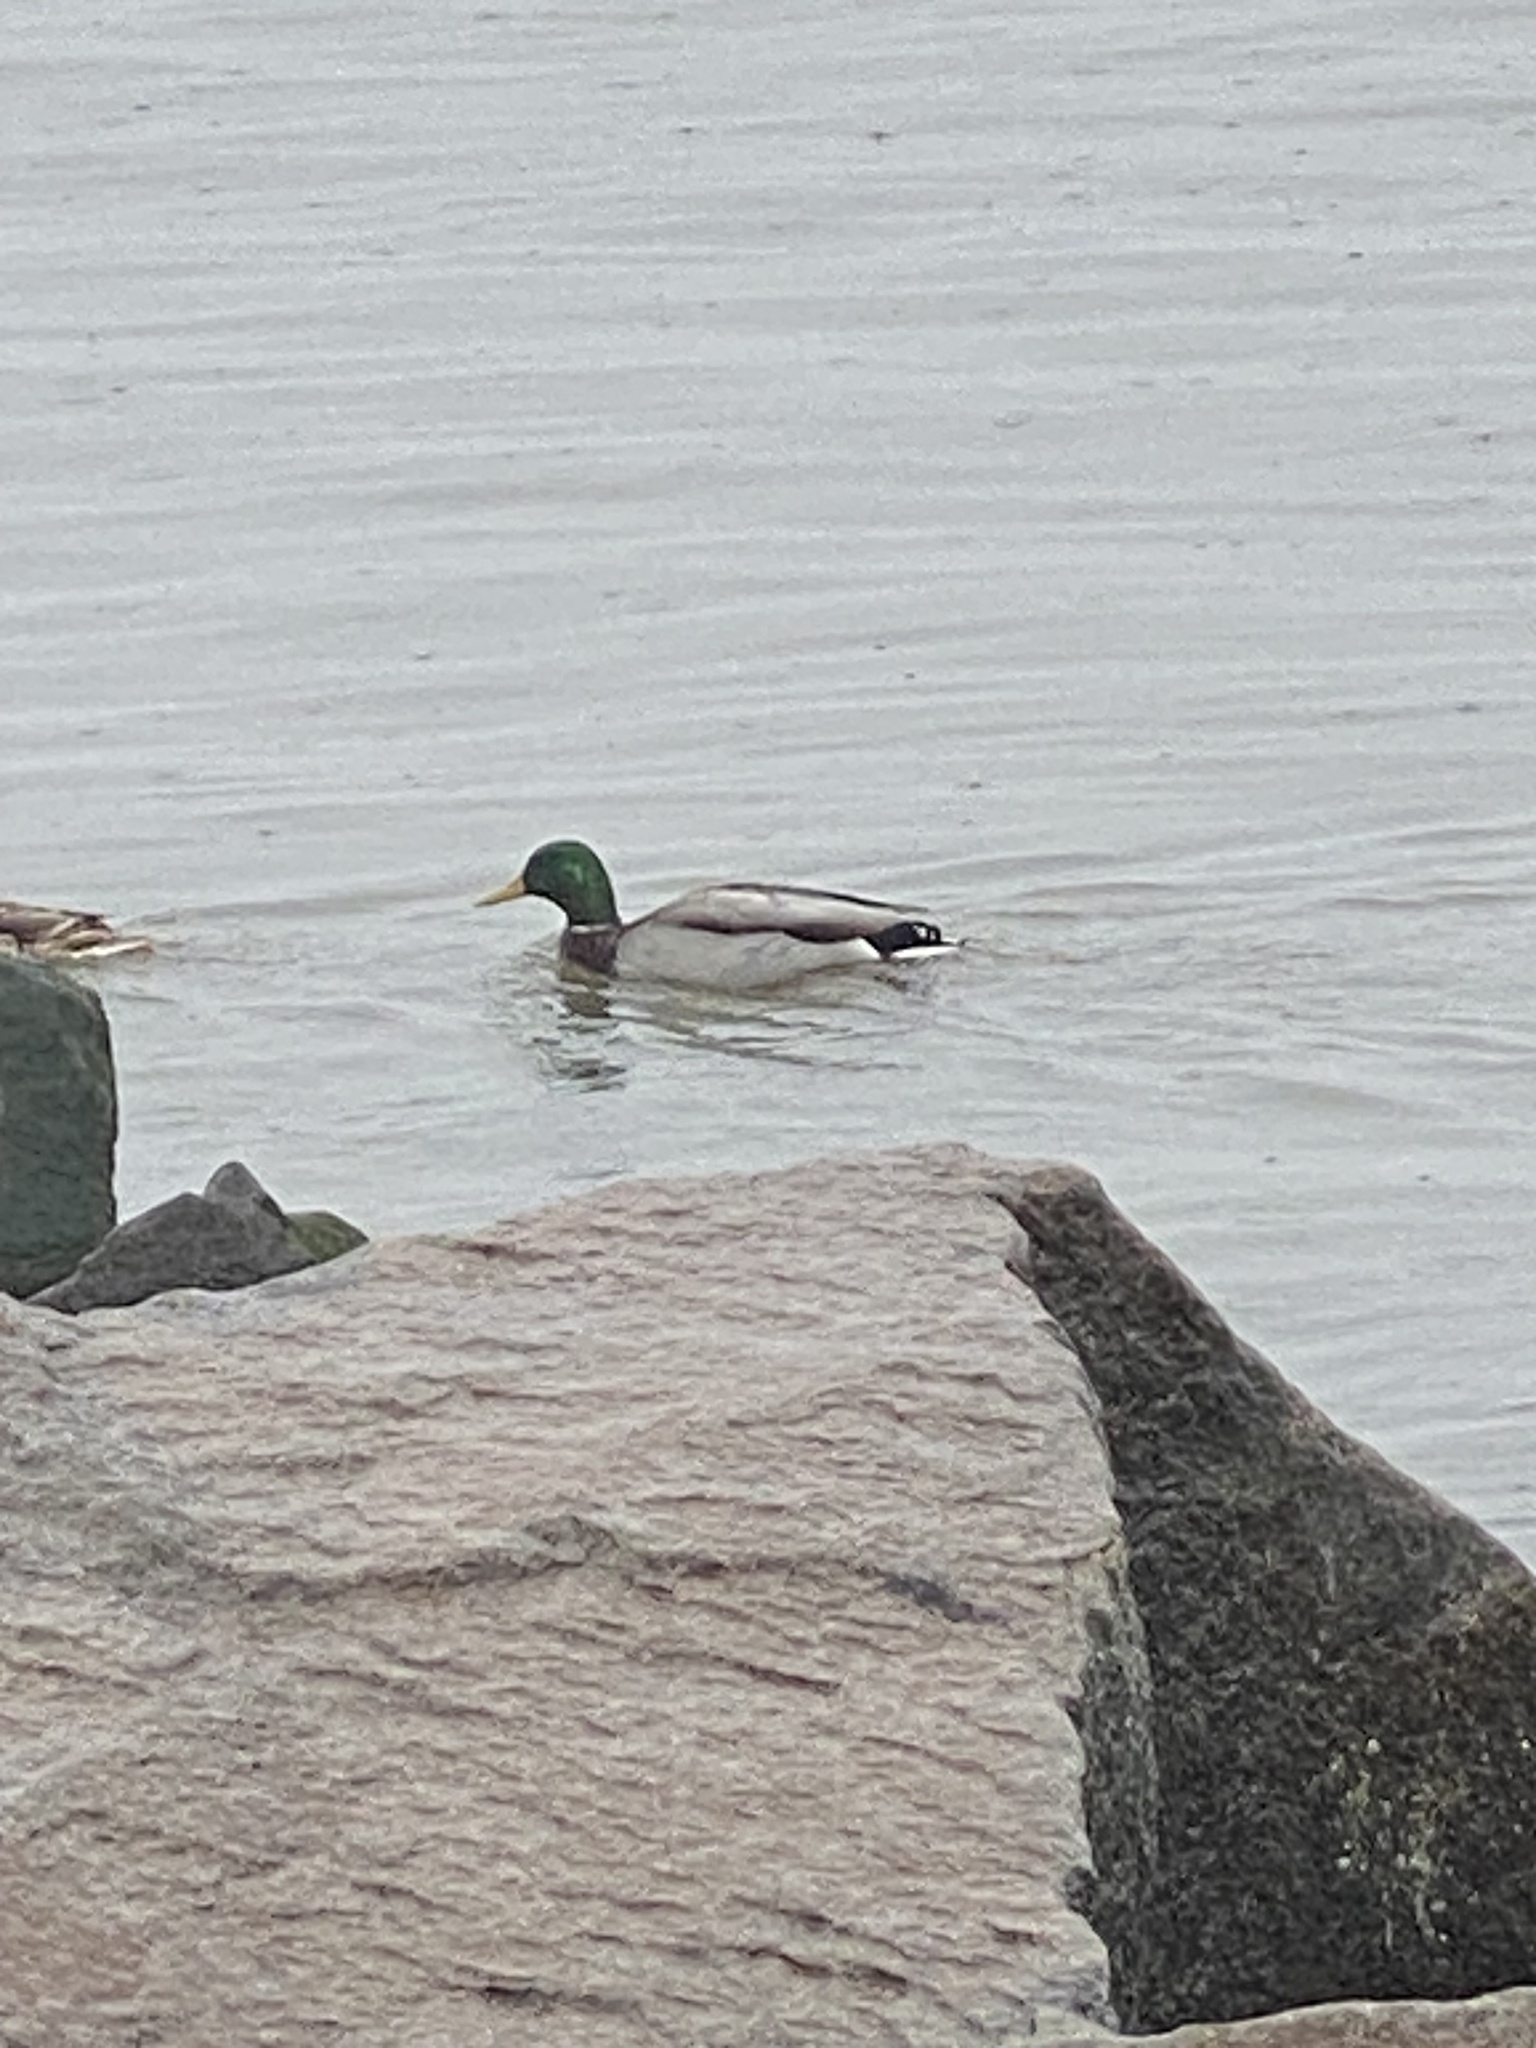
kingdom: Animalia
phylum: Chordata
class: Aves
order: Anseriformes
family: Anatidae
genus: Anas
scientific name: Anas platyrhynchos
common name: Mallard
